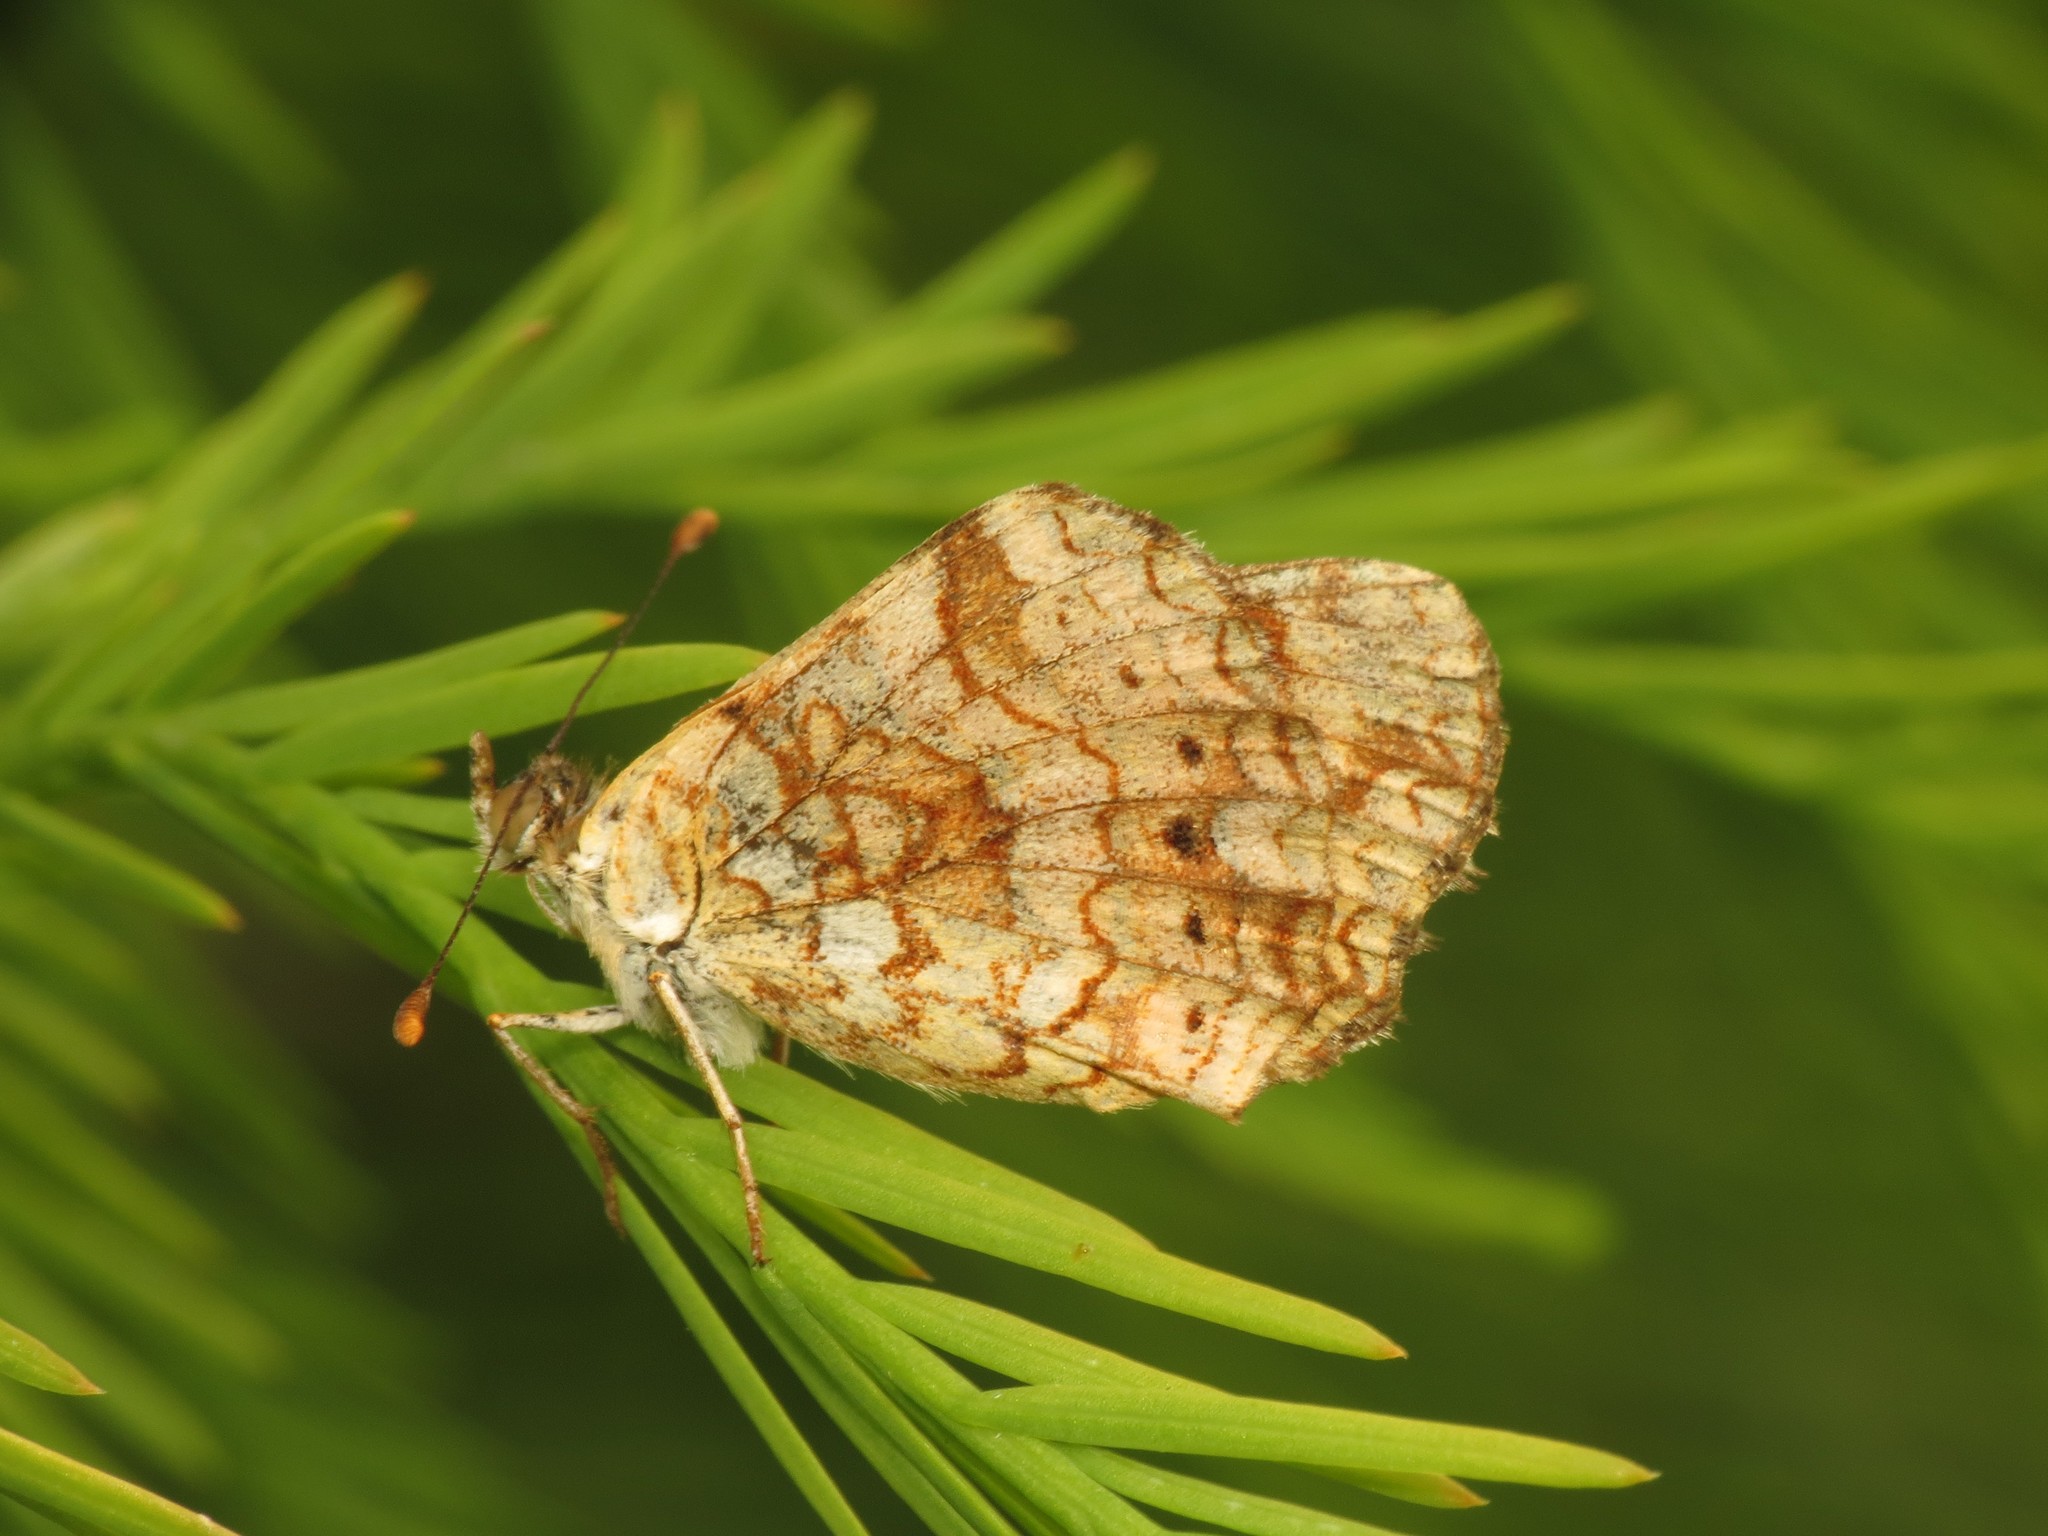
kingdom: Animalia
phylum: Arthropoda
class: Insecta
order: Lepidoptera
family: Nymphalidae
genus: Eresia
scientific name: Eresia aveyrona
